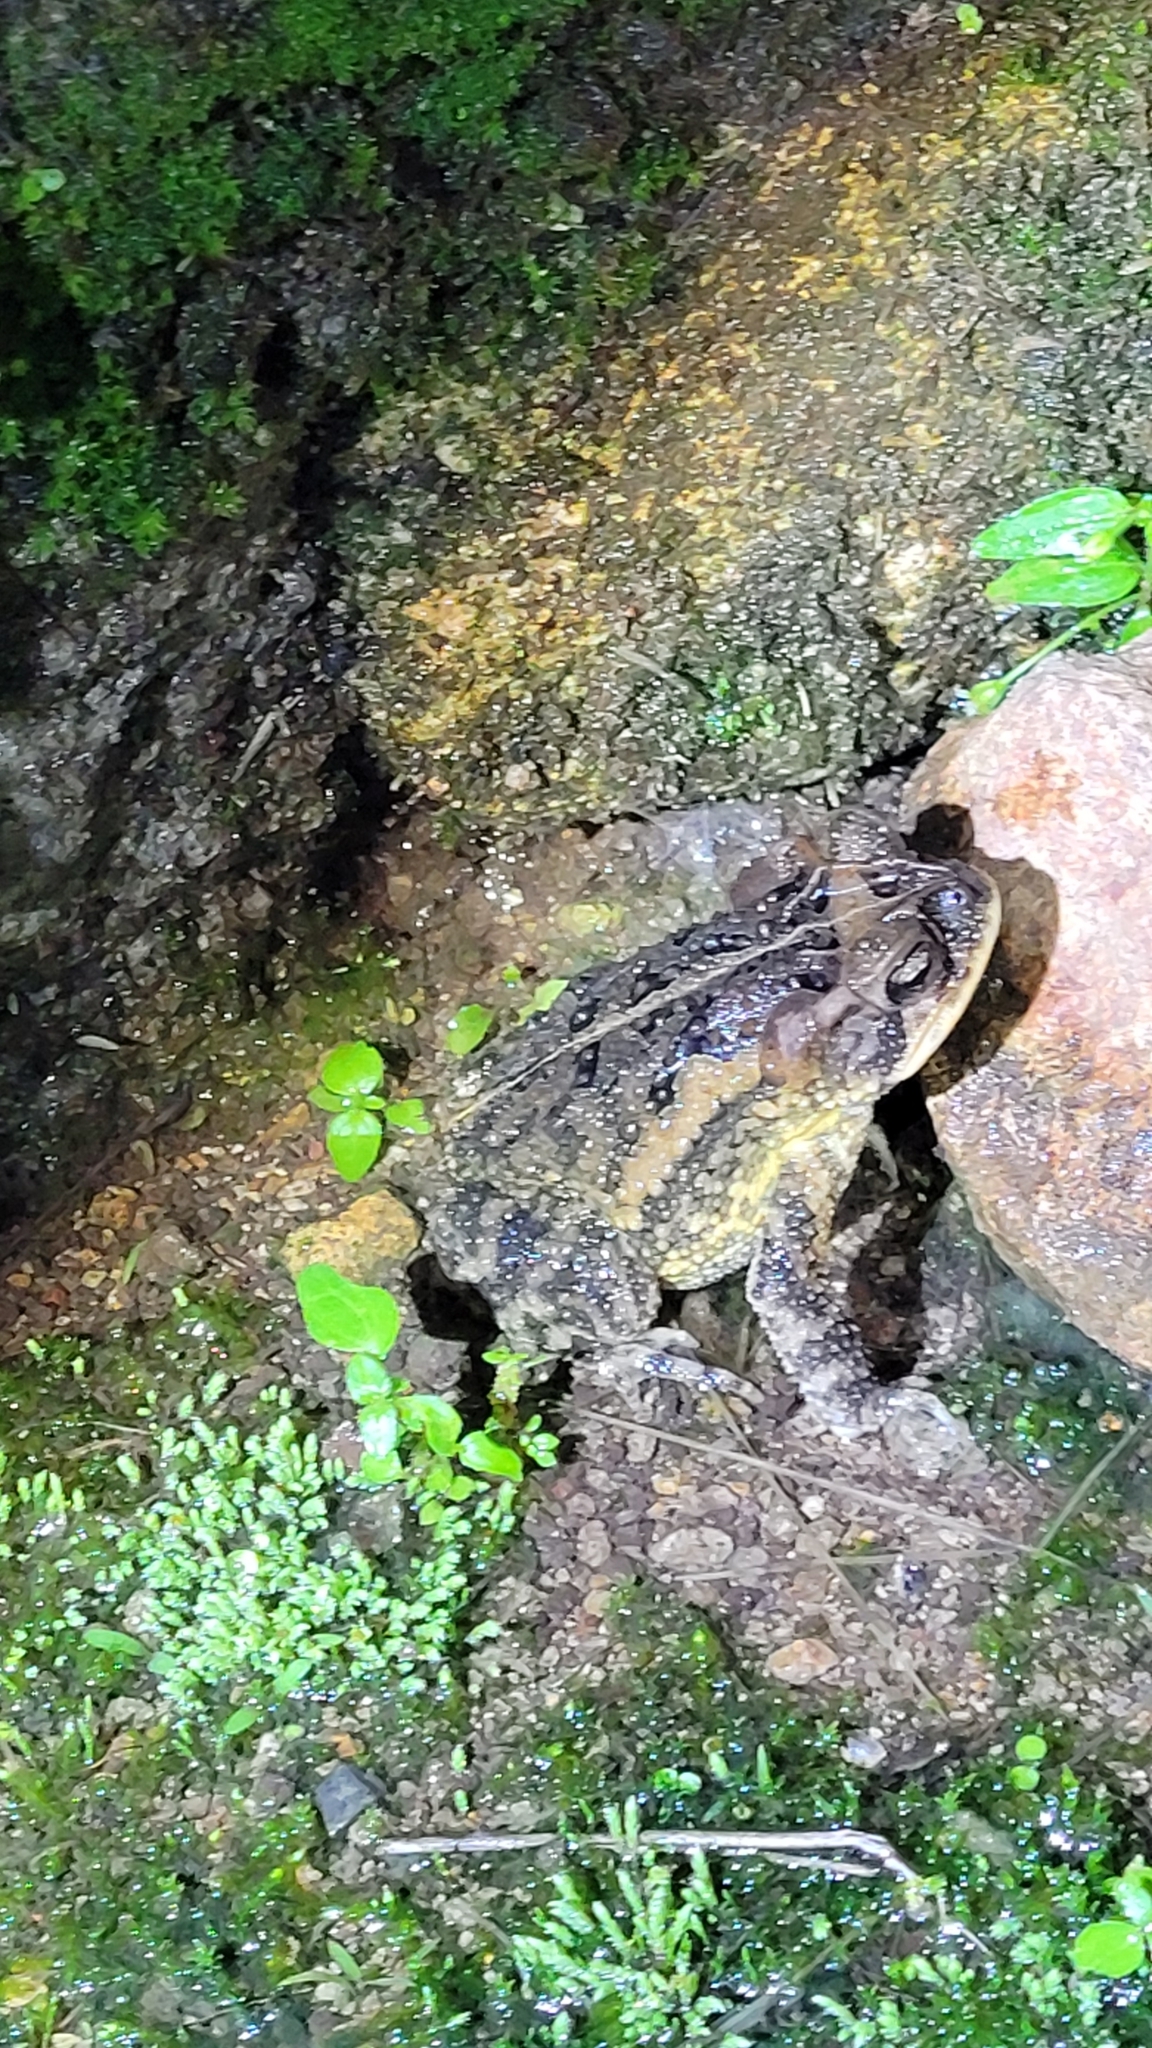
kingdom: Animalia
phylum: Chordata
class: Amphibia
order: Anura
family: Bufonidae
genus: Incilius
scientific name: Incilius porteri
